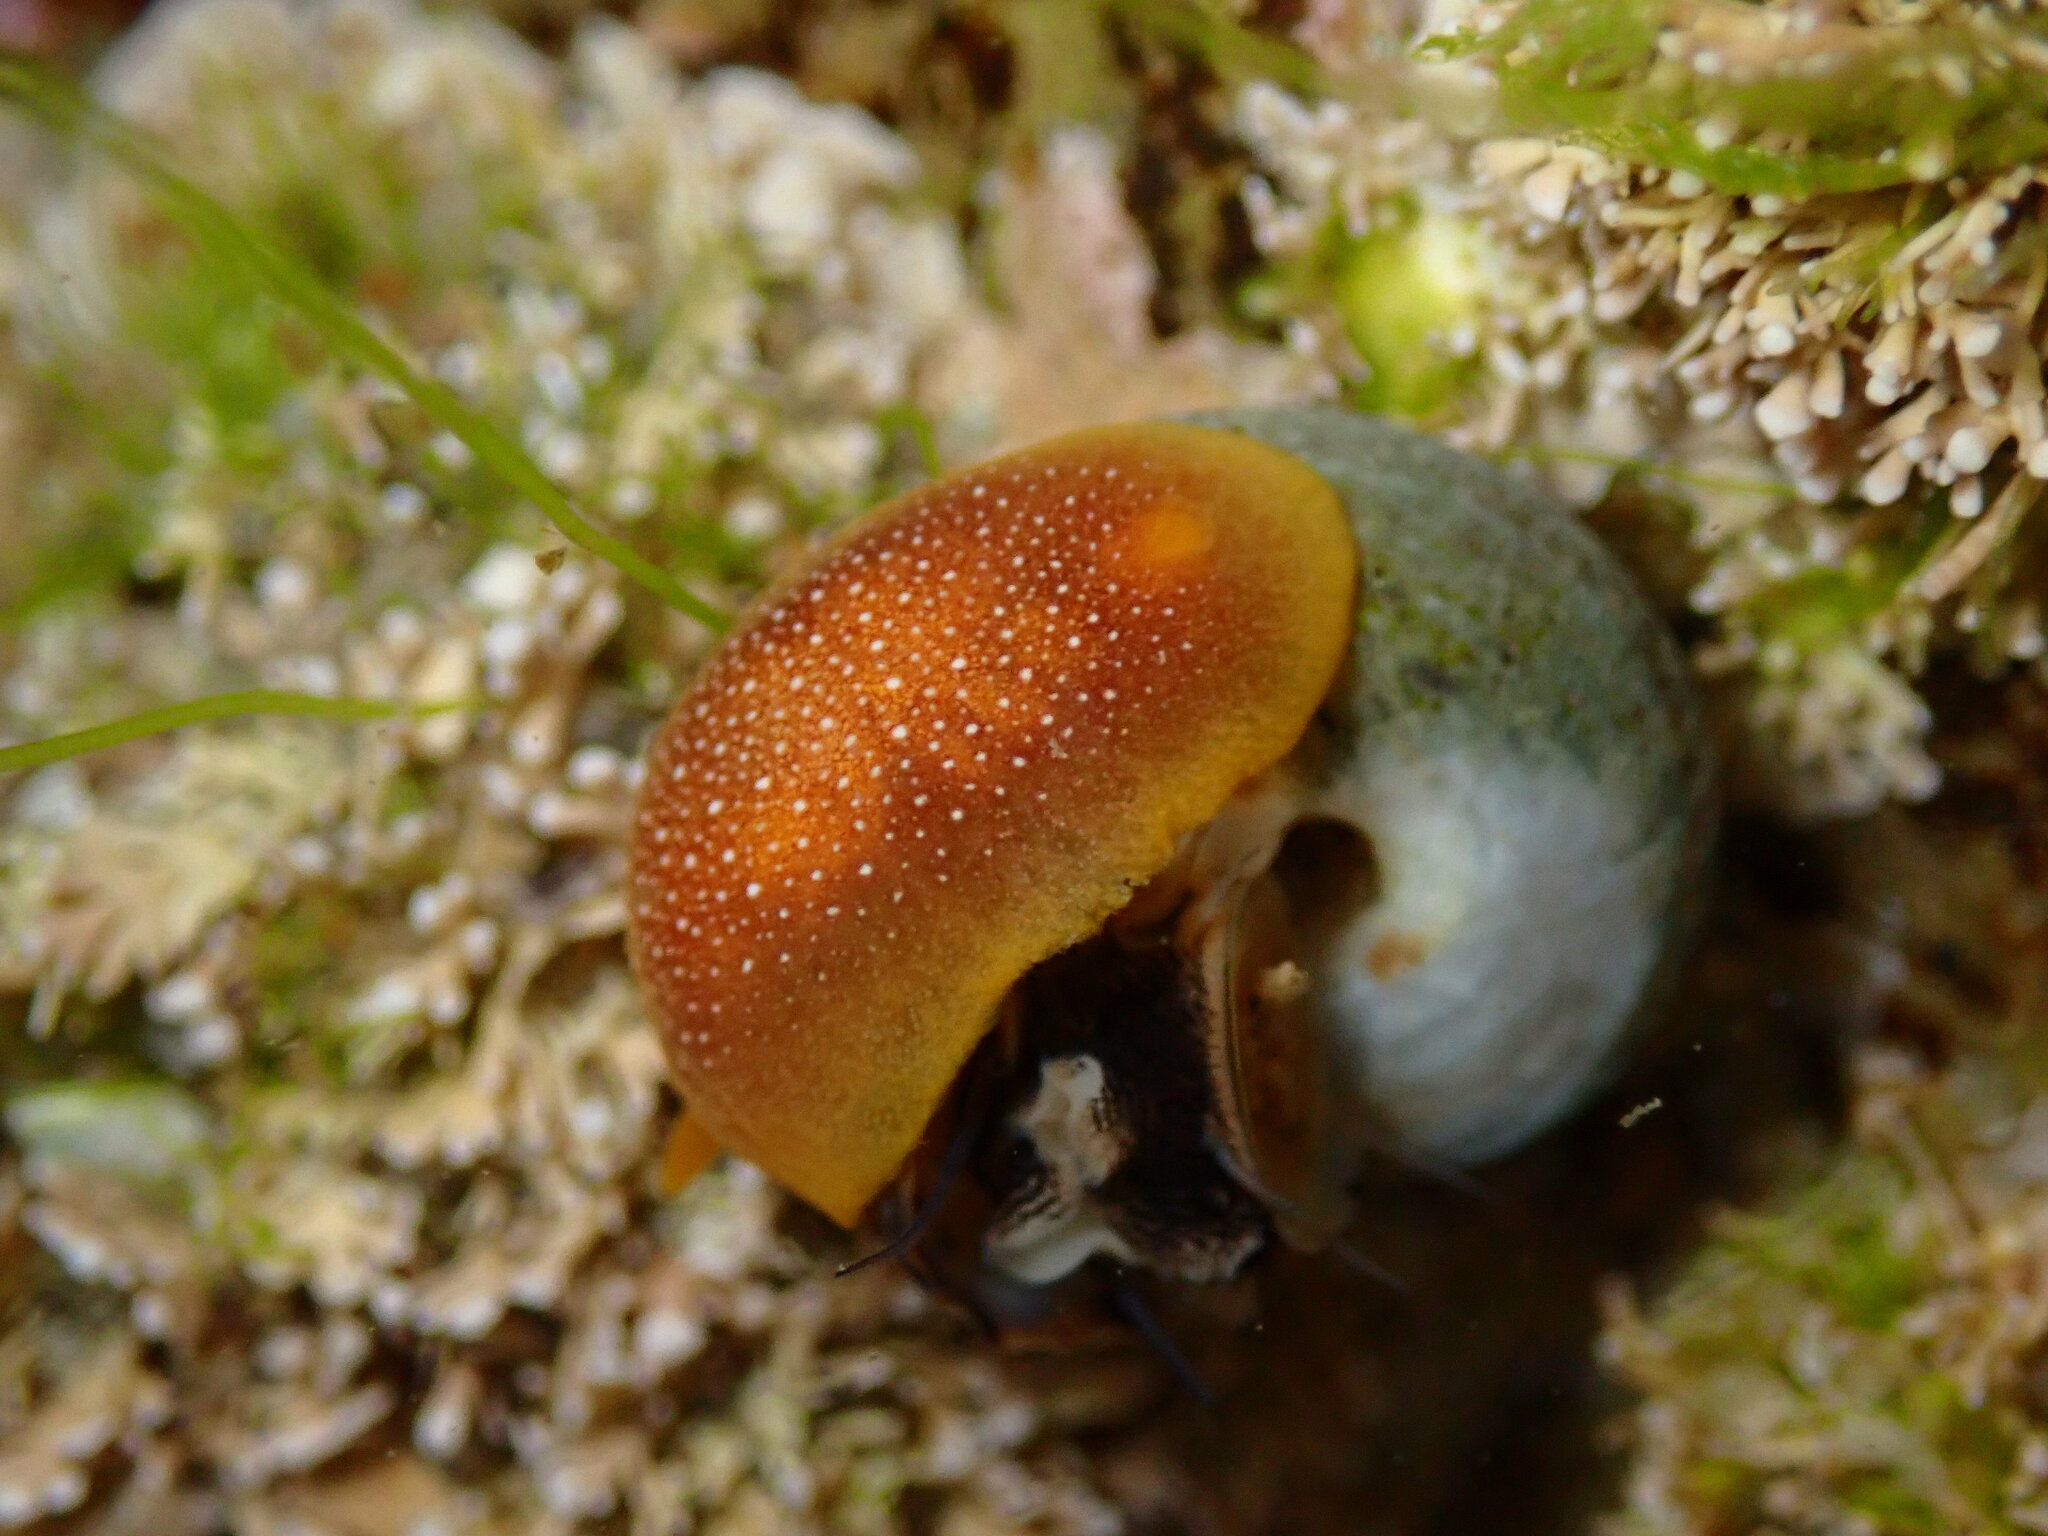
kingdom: Animalia
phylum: Mollusca
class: Gastropoda
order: Nudibranchia
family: Dendrodorididae
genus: Doriopsilla
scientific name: Doriopsilla gemela
